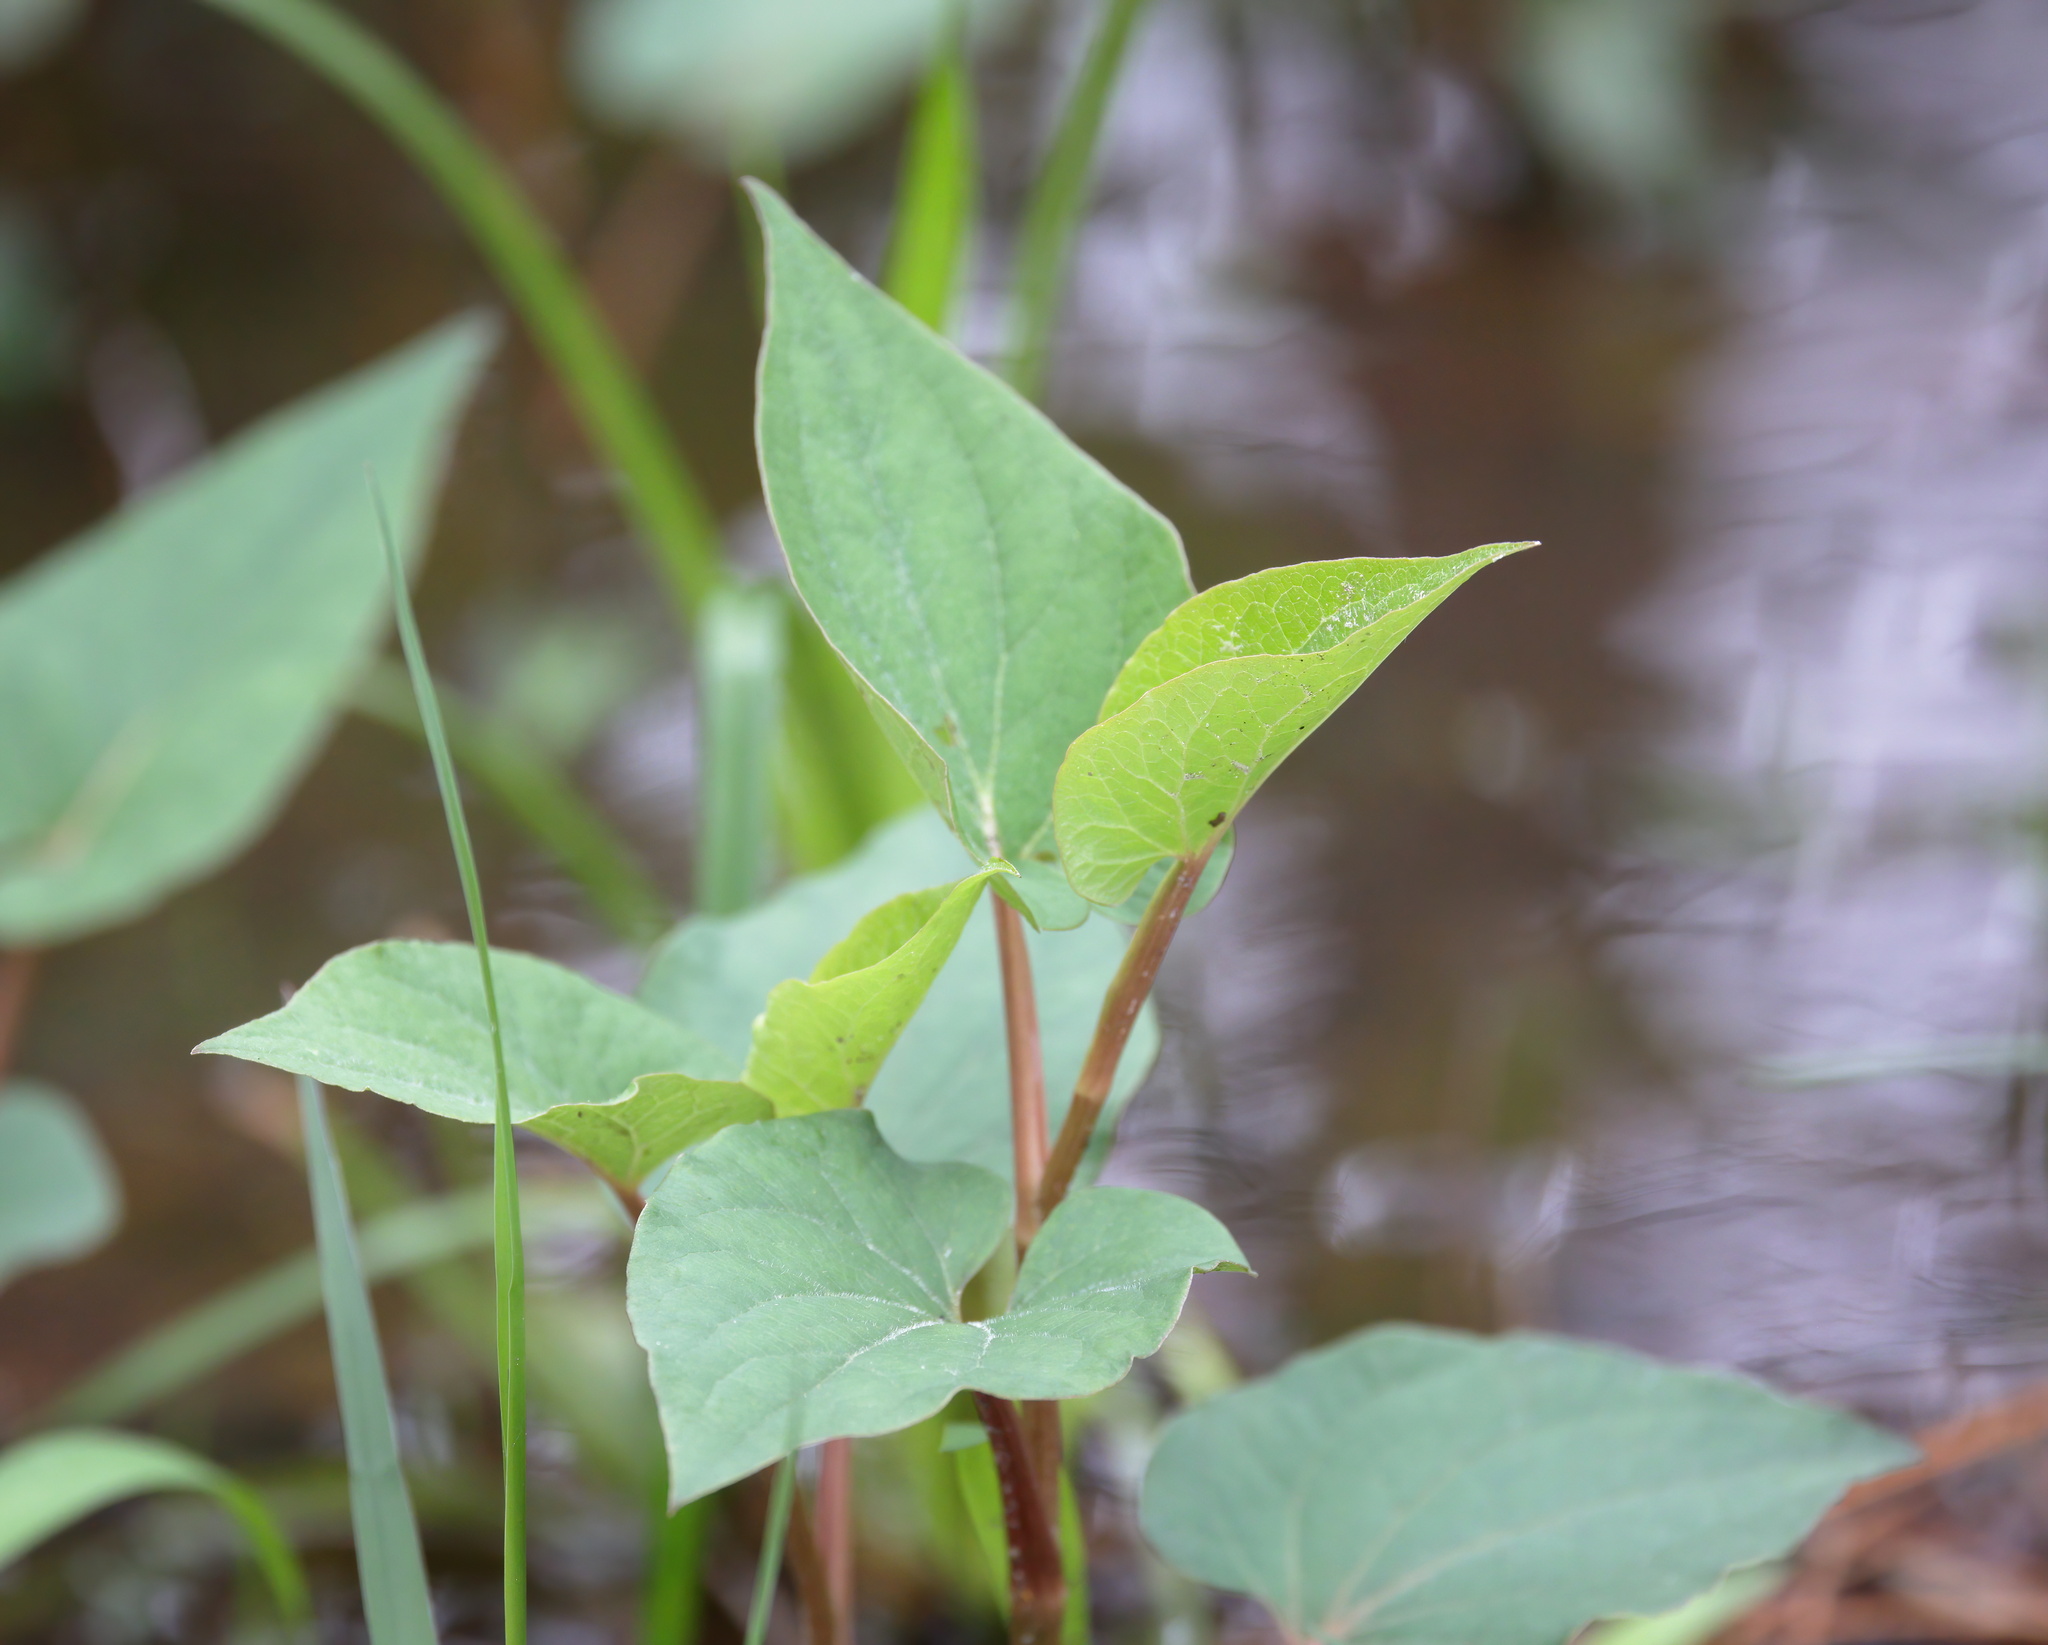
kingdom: Plantae
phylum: Tracheophyta
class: Magnoliopsida
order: Piperales
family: Saururaceae
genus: Saururus
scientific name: Saururus cernuus
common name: Lizard's-tail
